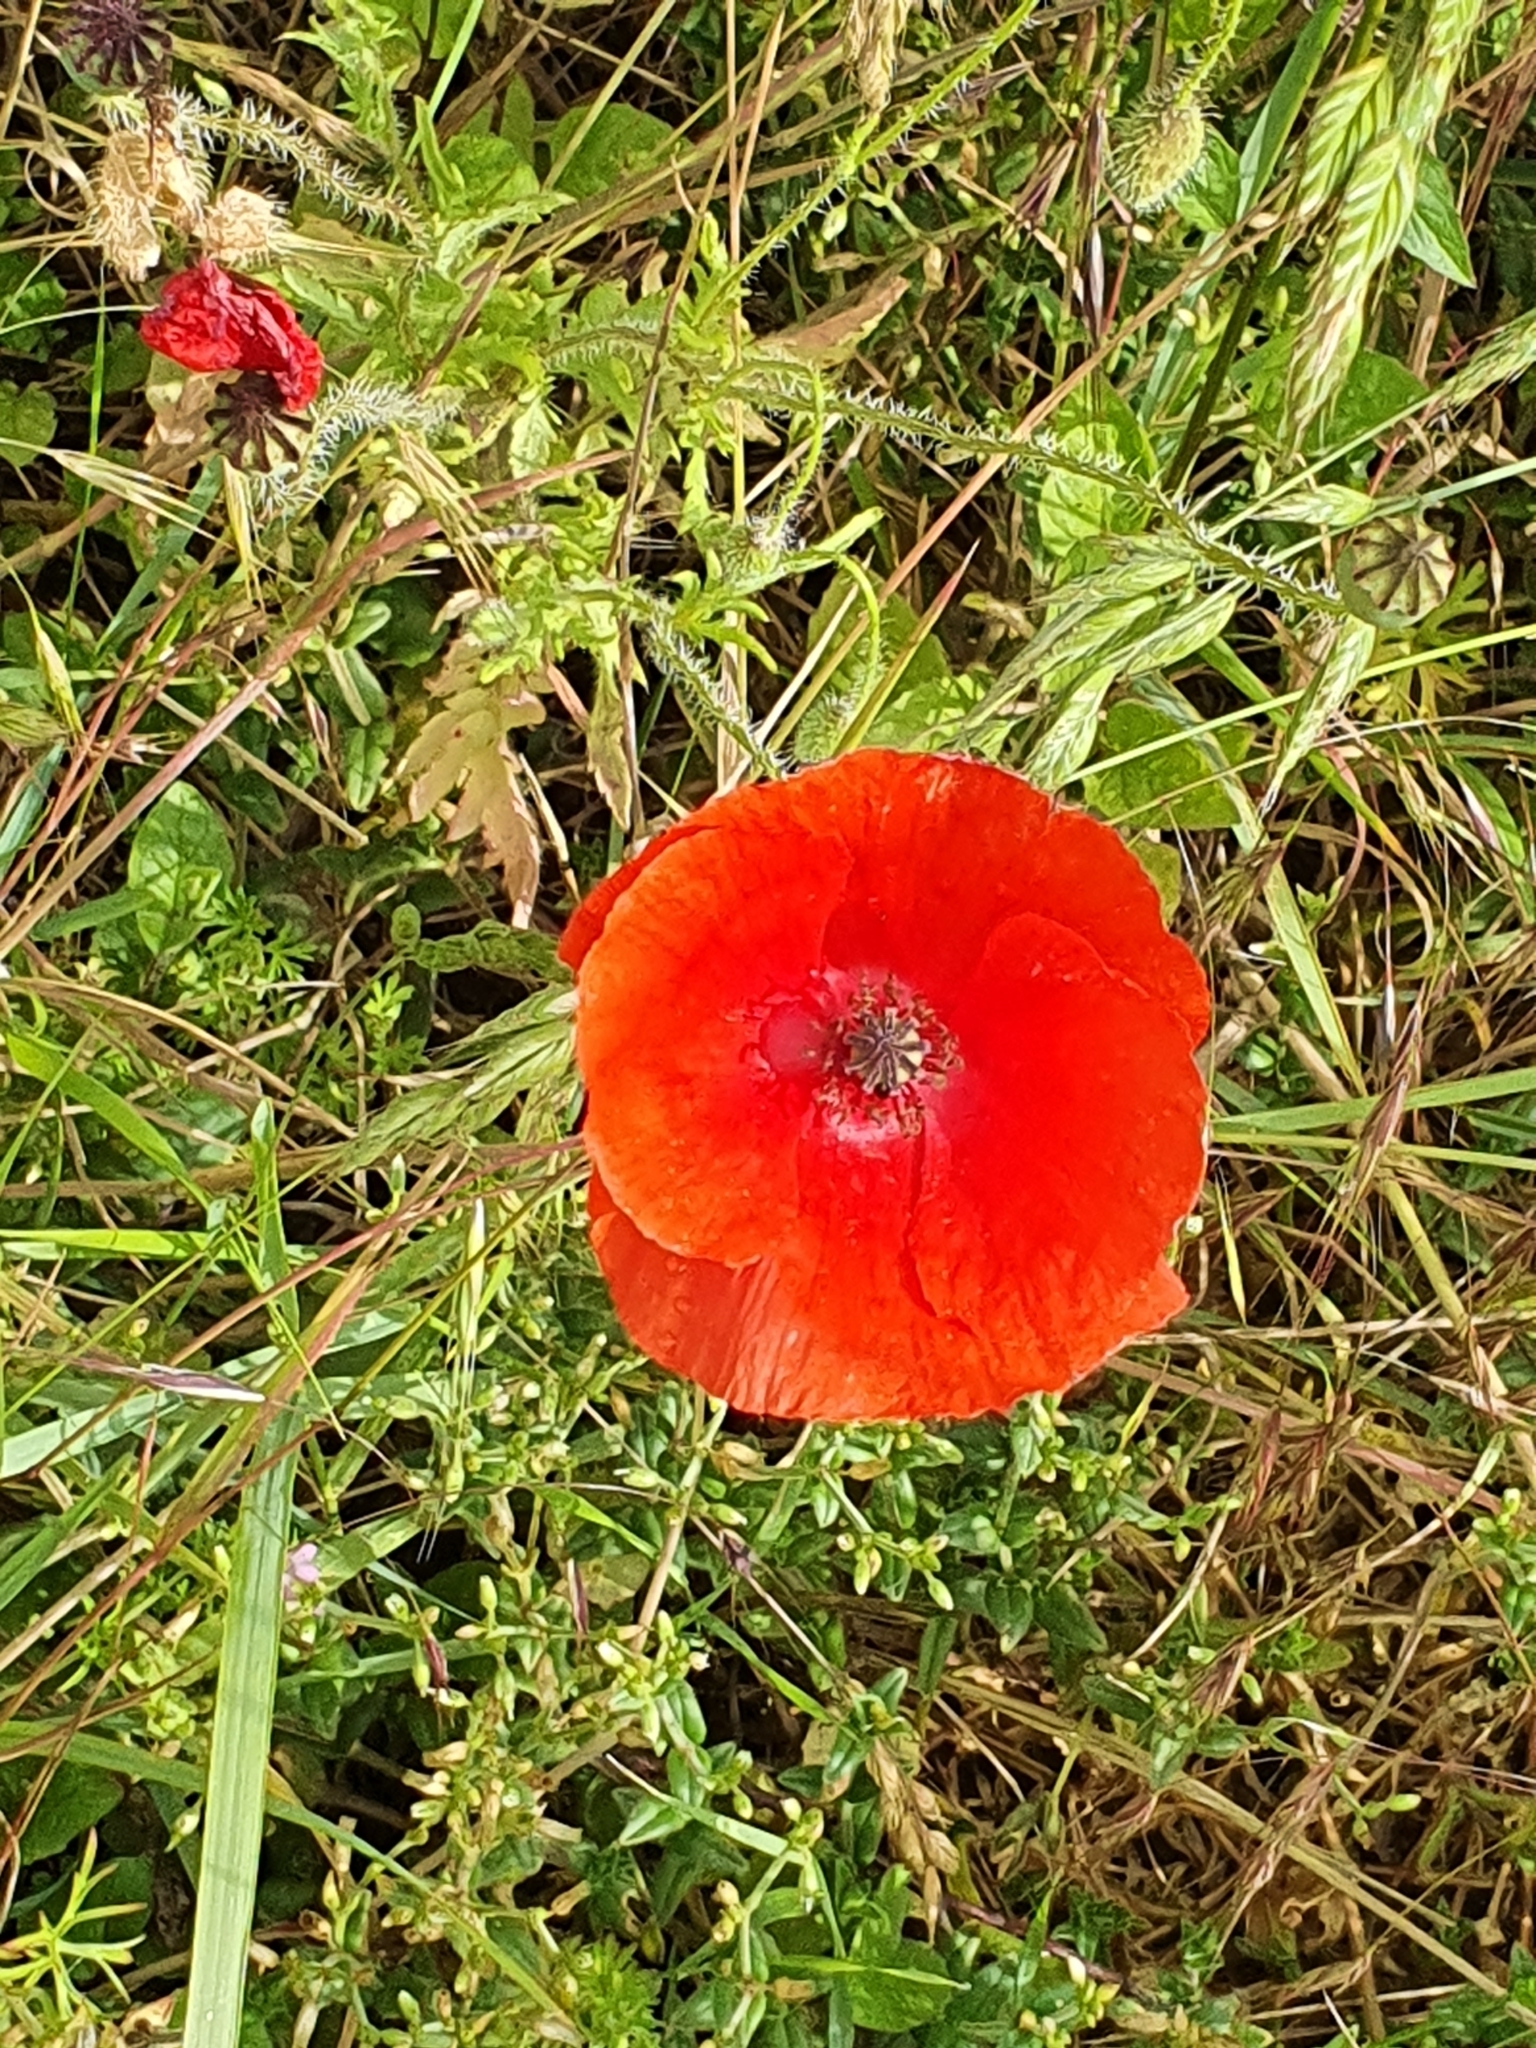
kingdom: Plantae
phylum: Tracheophyta
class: Magnoliopsida
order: Ranunculales
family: Papaveraceae
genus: Papaver
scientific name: Papaver rhoeas
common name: Corn poppy
